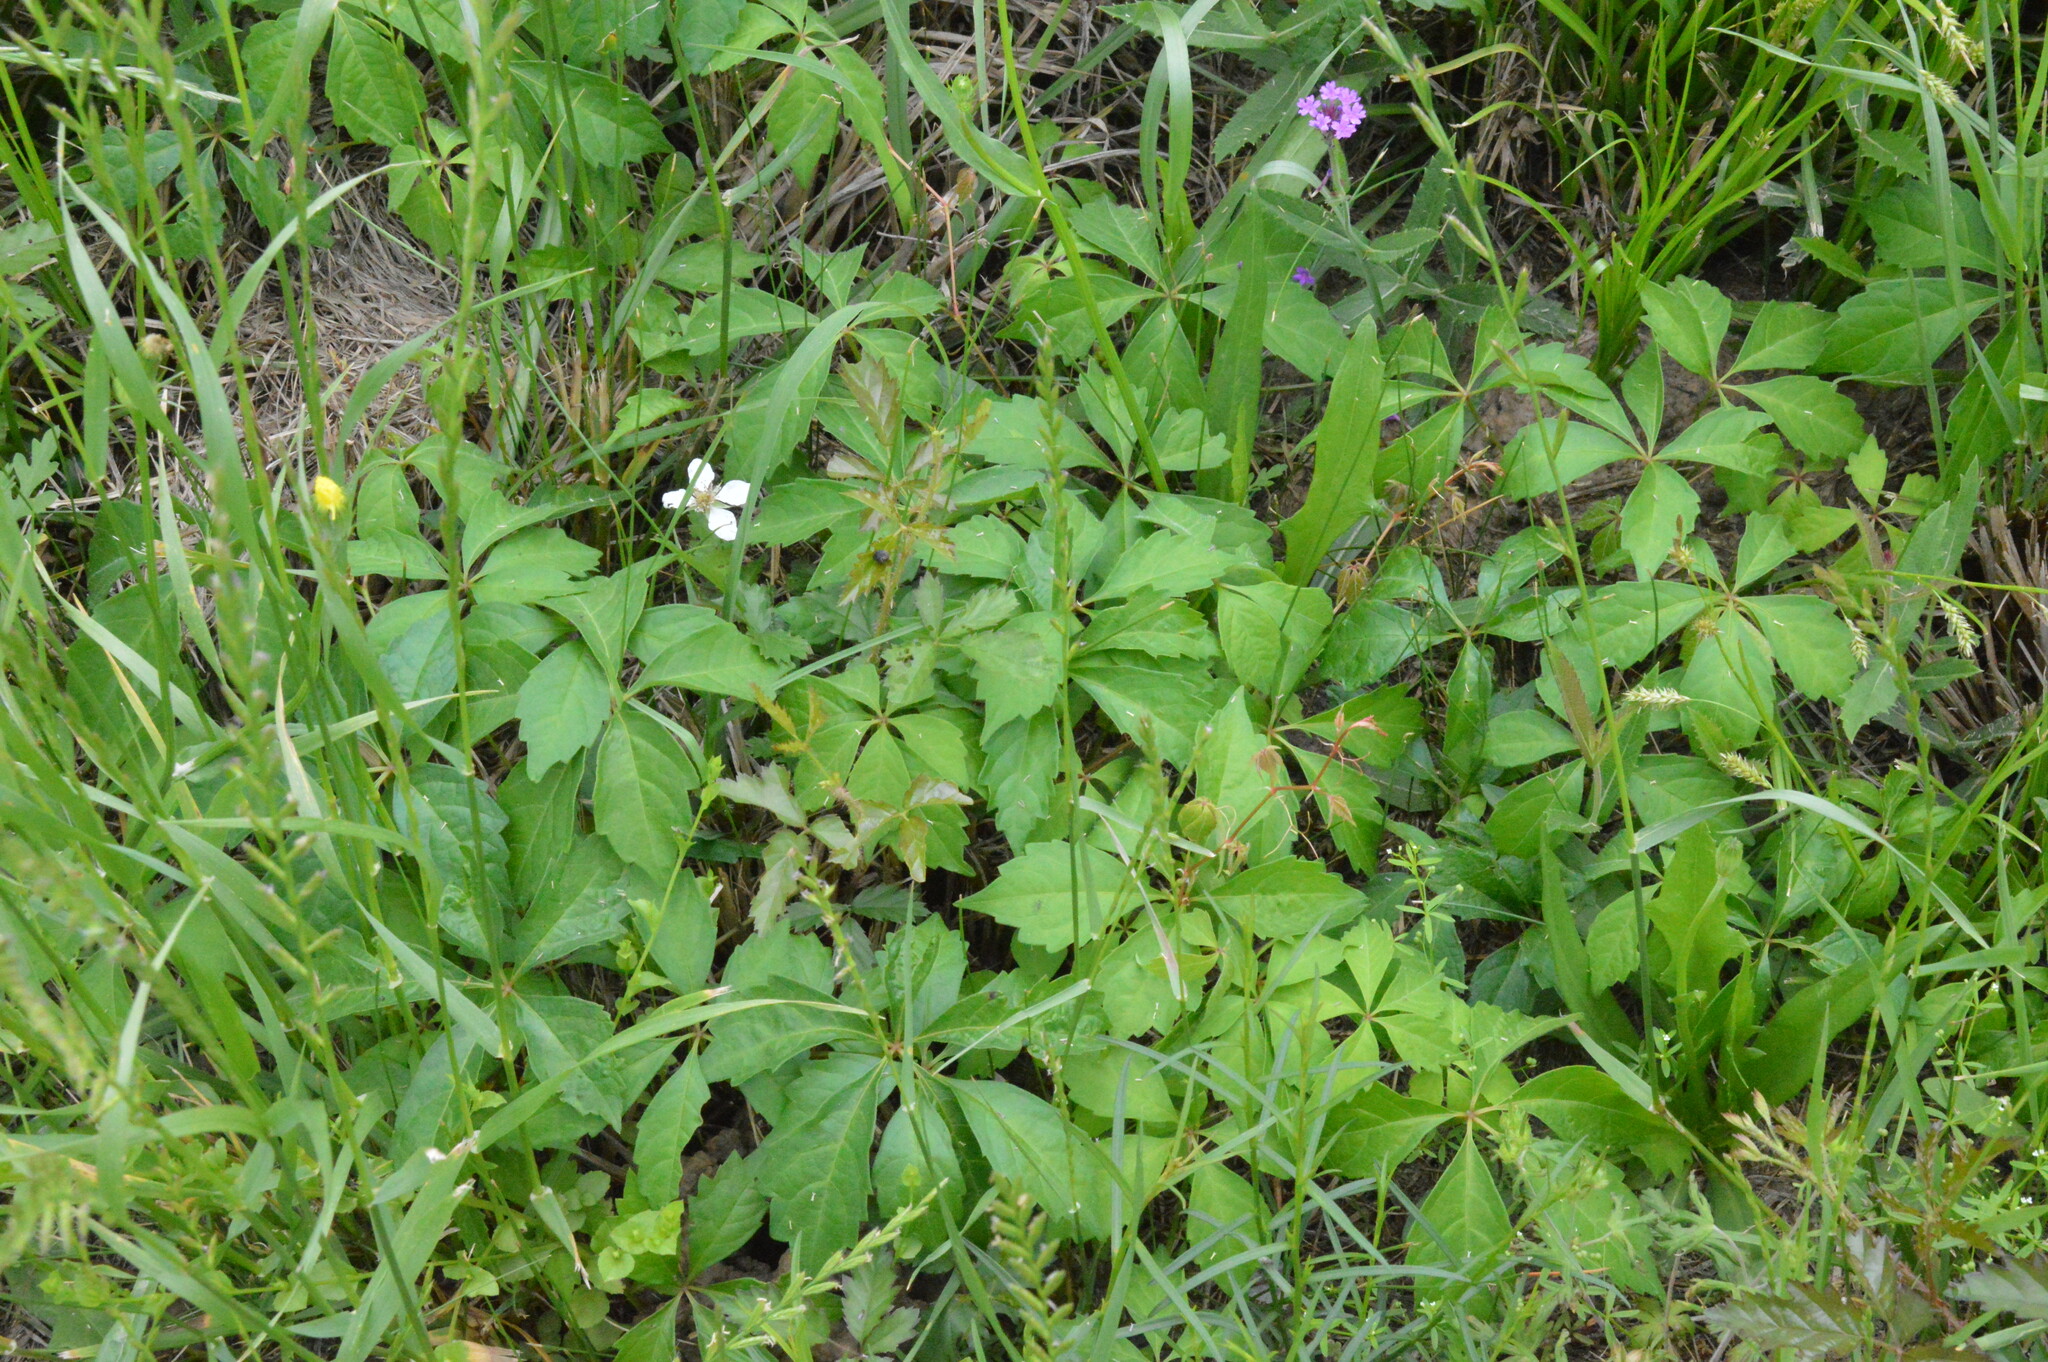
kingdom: Plantae
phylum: Tracheophyta
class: Magnoliopsida
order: Vitales
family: Vitaceae
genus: Parthenocissus
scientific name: Parthenocissus quinquefolia
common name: Virginia-creeper
